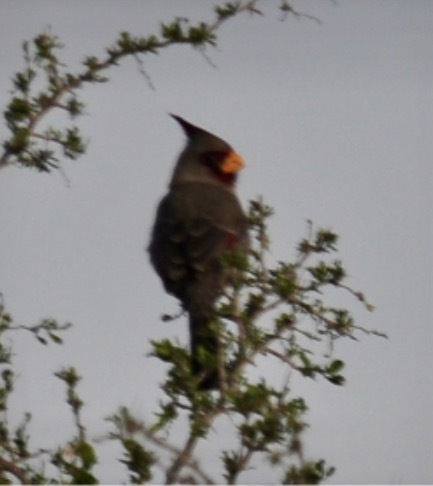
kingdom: Animalia
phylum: Chordata
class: Aves
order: Passeriformes
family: Cardinalidae
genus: Cardinalis
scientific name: Cardinalis sinuatus
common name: Pyrrhuloxia
